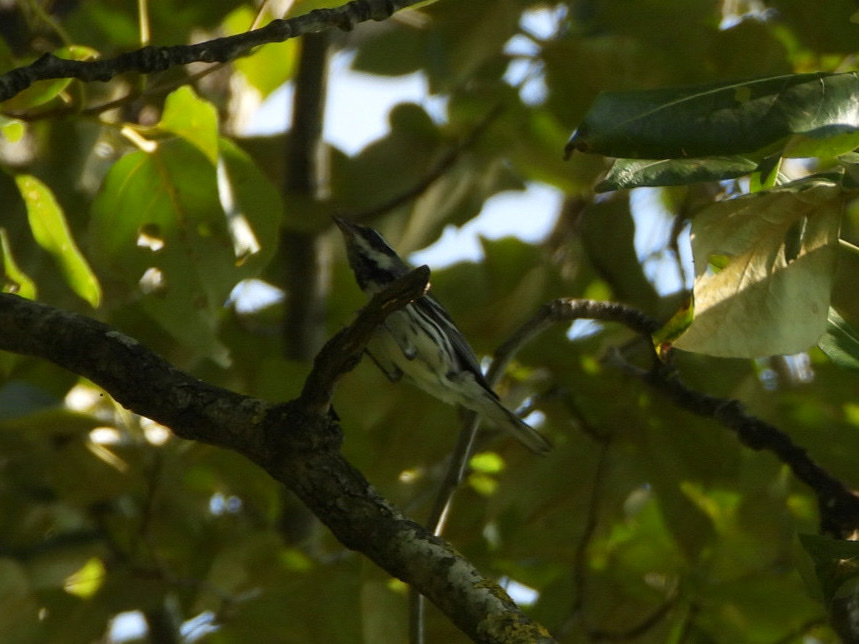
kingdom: Animalia
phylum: Chordata
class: Aves
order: Passeriformes
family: Parulidae
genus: Setophaga
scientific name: Setophaga nigrescens
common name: Black-throated gray warbler
